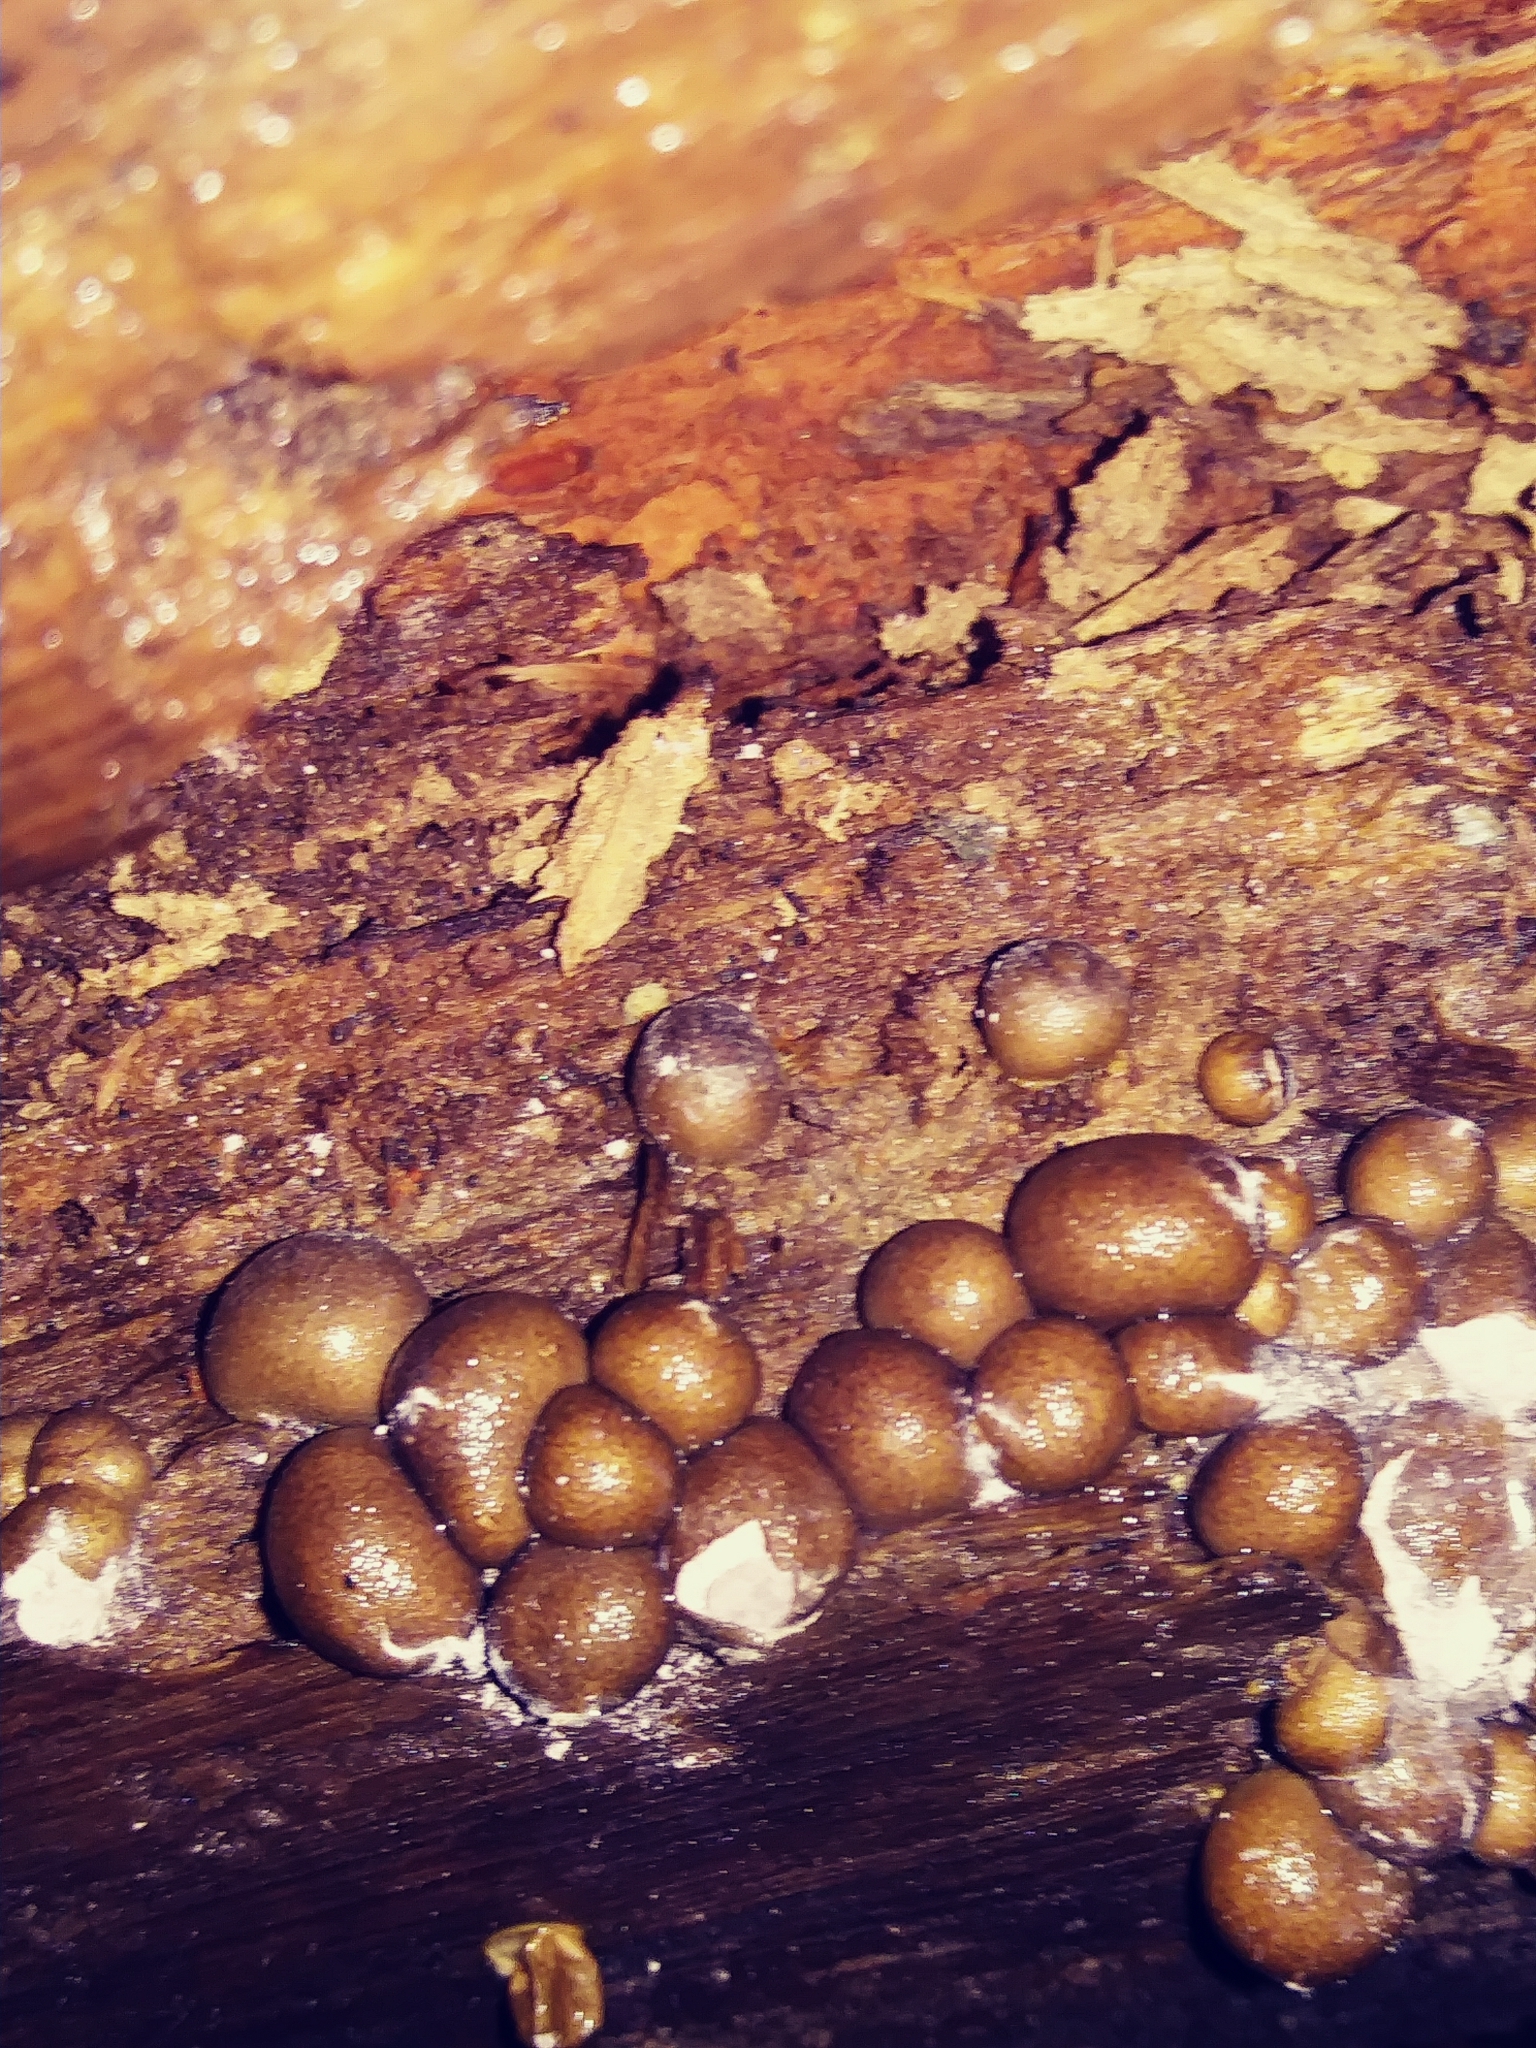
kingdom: Protozoa
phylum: Mycetozoa
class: Myxomycetes
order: Cribrariales
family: Tubiferaceae
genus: Lycogala
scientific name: Lycogala epidendrum
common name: Wolf's milk
